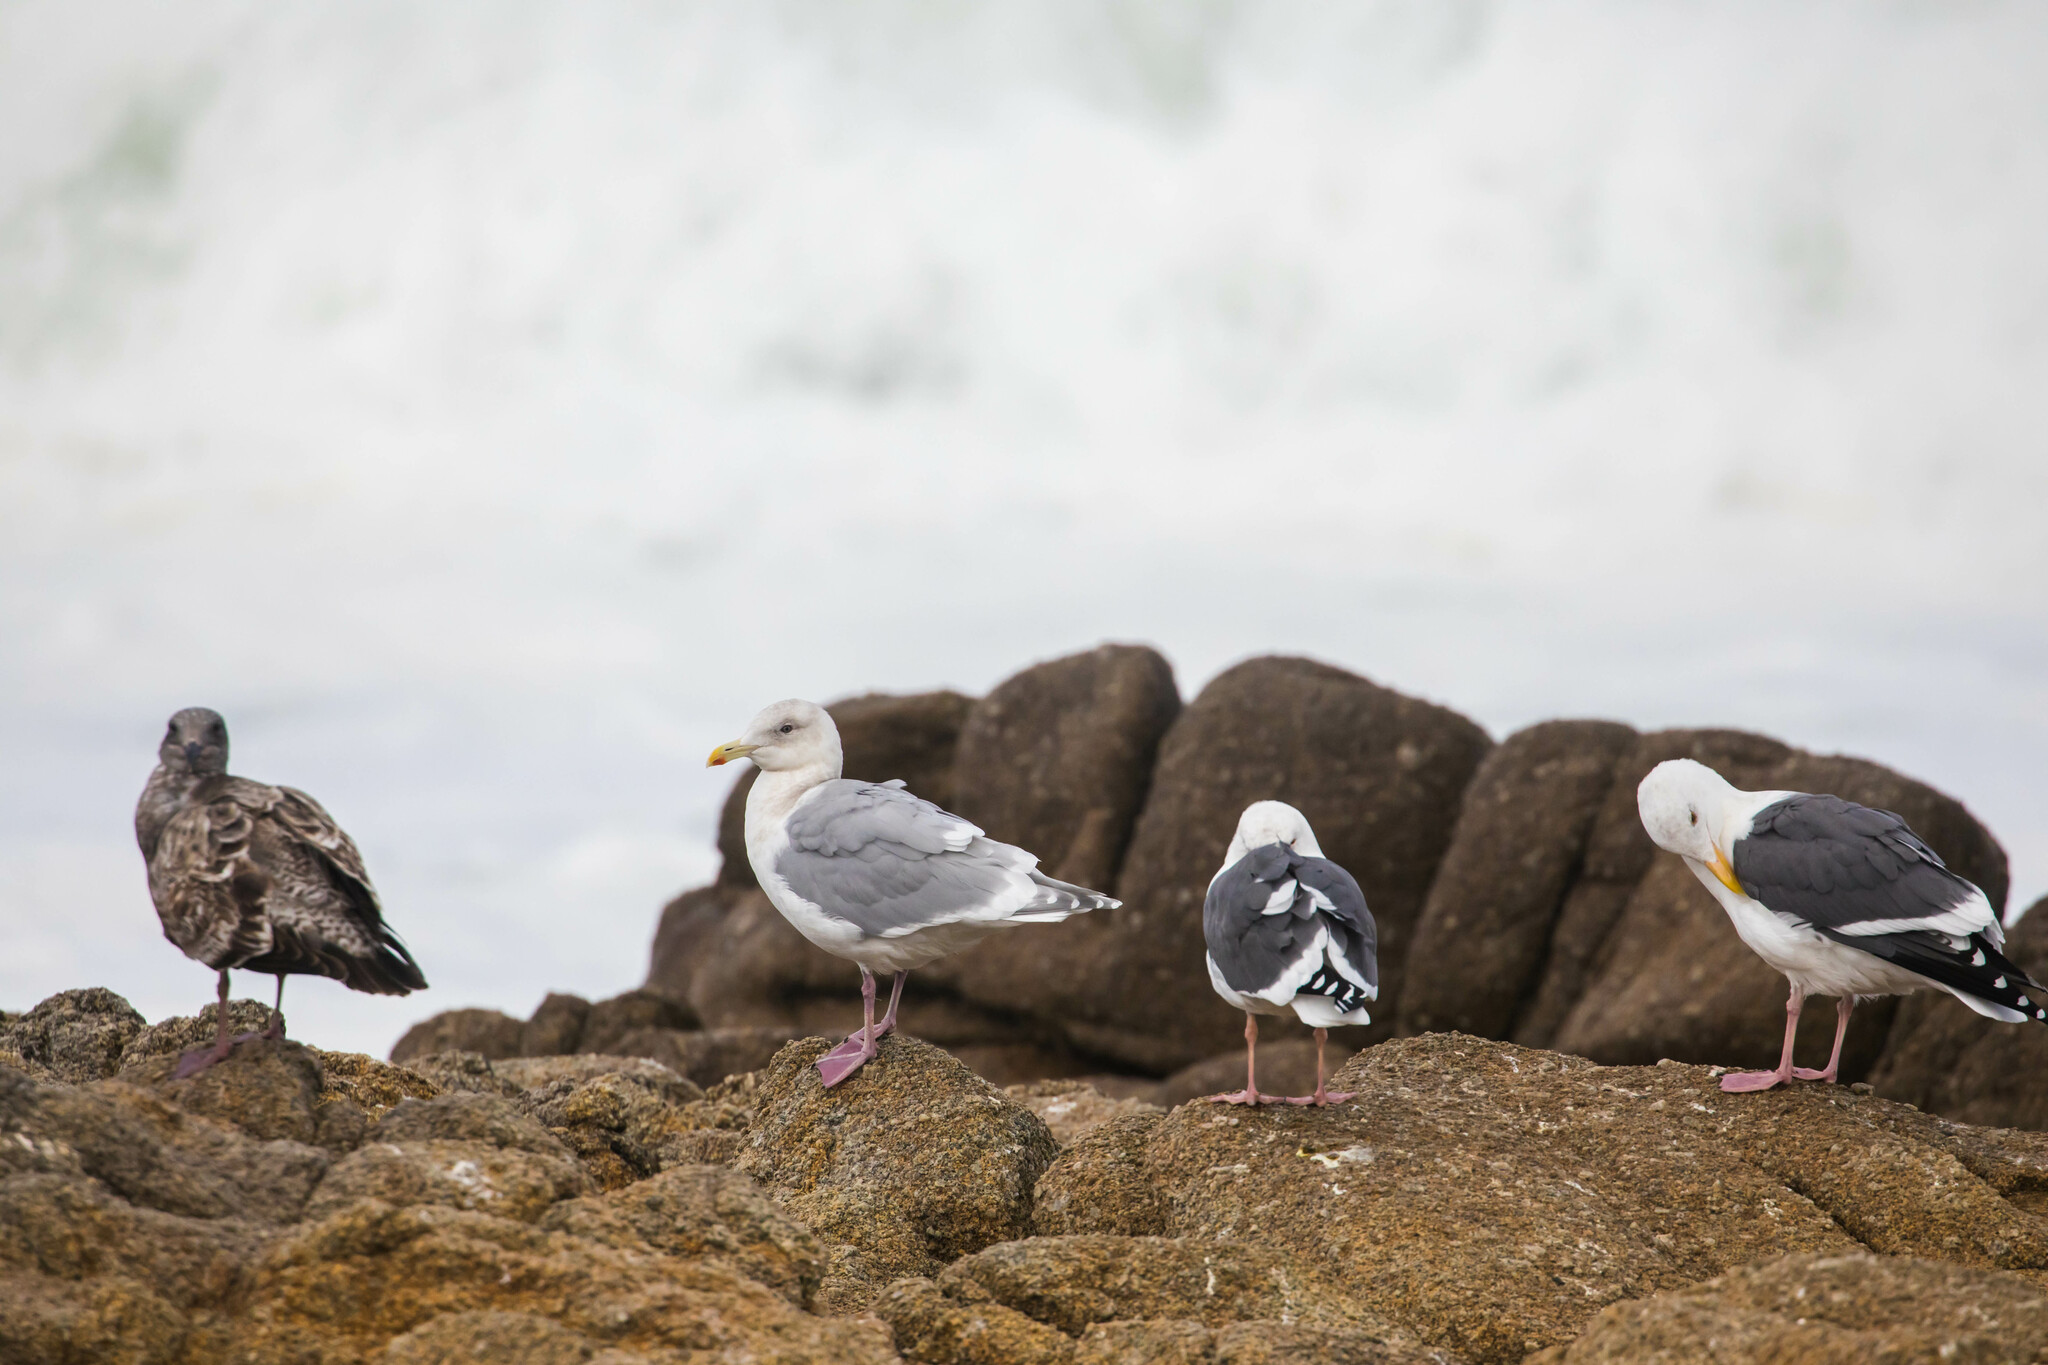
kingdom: Animalia
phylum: Chordata
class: Aves
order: Charadriiformes
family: Laridae
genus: Larus
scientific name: Larus glaucescens
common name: Glaucous-winged gull
